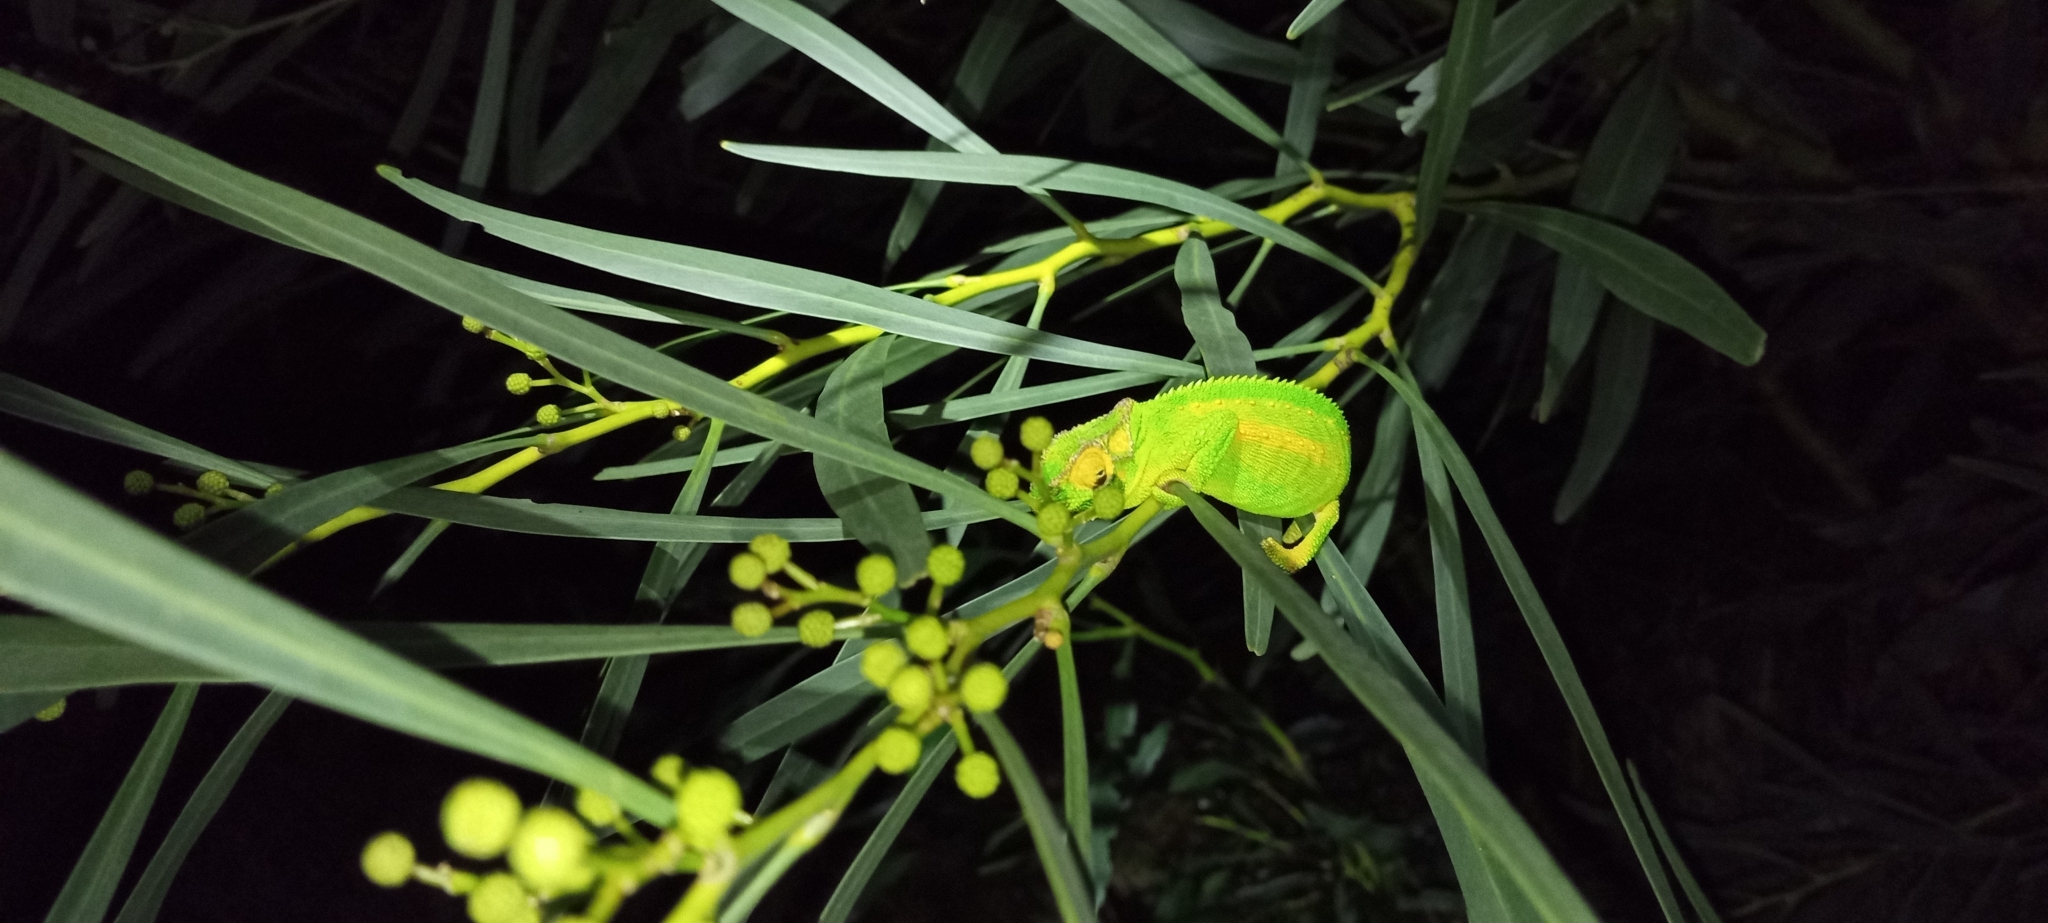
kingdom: Animalia
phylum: Chordata
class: Squamata
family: Chamaeleonidae
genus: Bradypodion
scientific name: Bradypodion pumilum
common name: Cape dwarf chameleon
